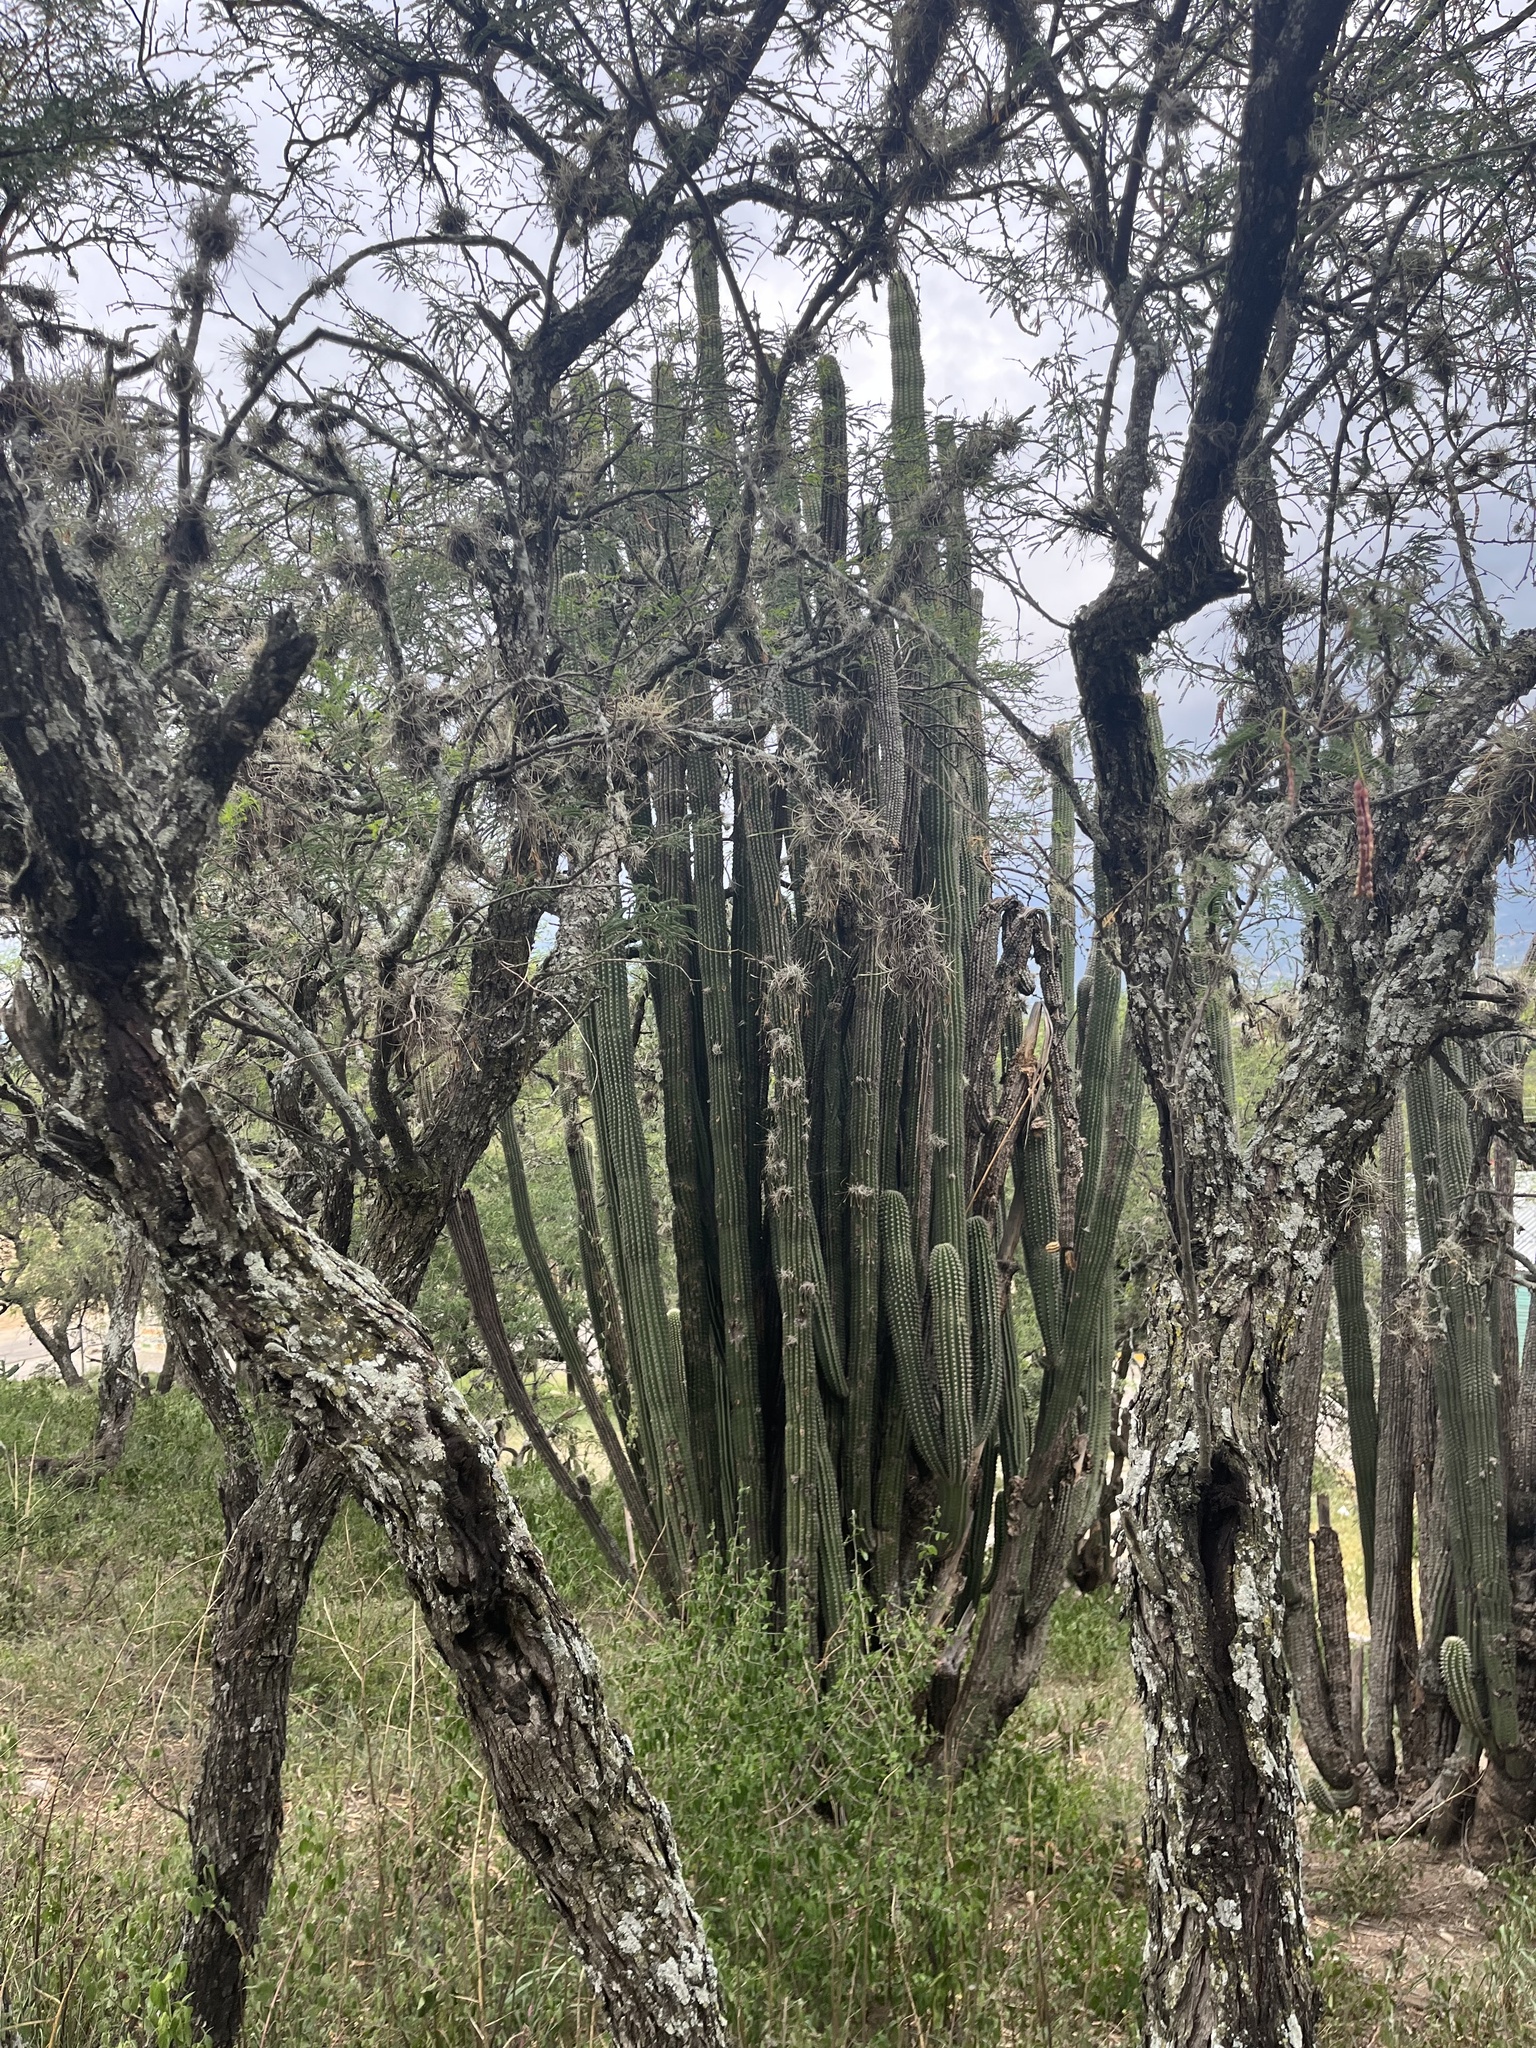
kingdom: Plantae
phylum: Tracheophyta
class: Magnoliopsida
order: Caryophyllales
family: Cactaceae
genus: Stenocereus
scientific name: Stenocereus treleasei
